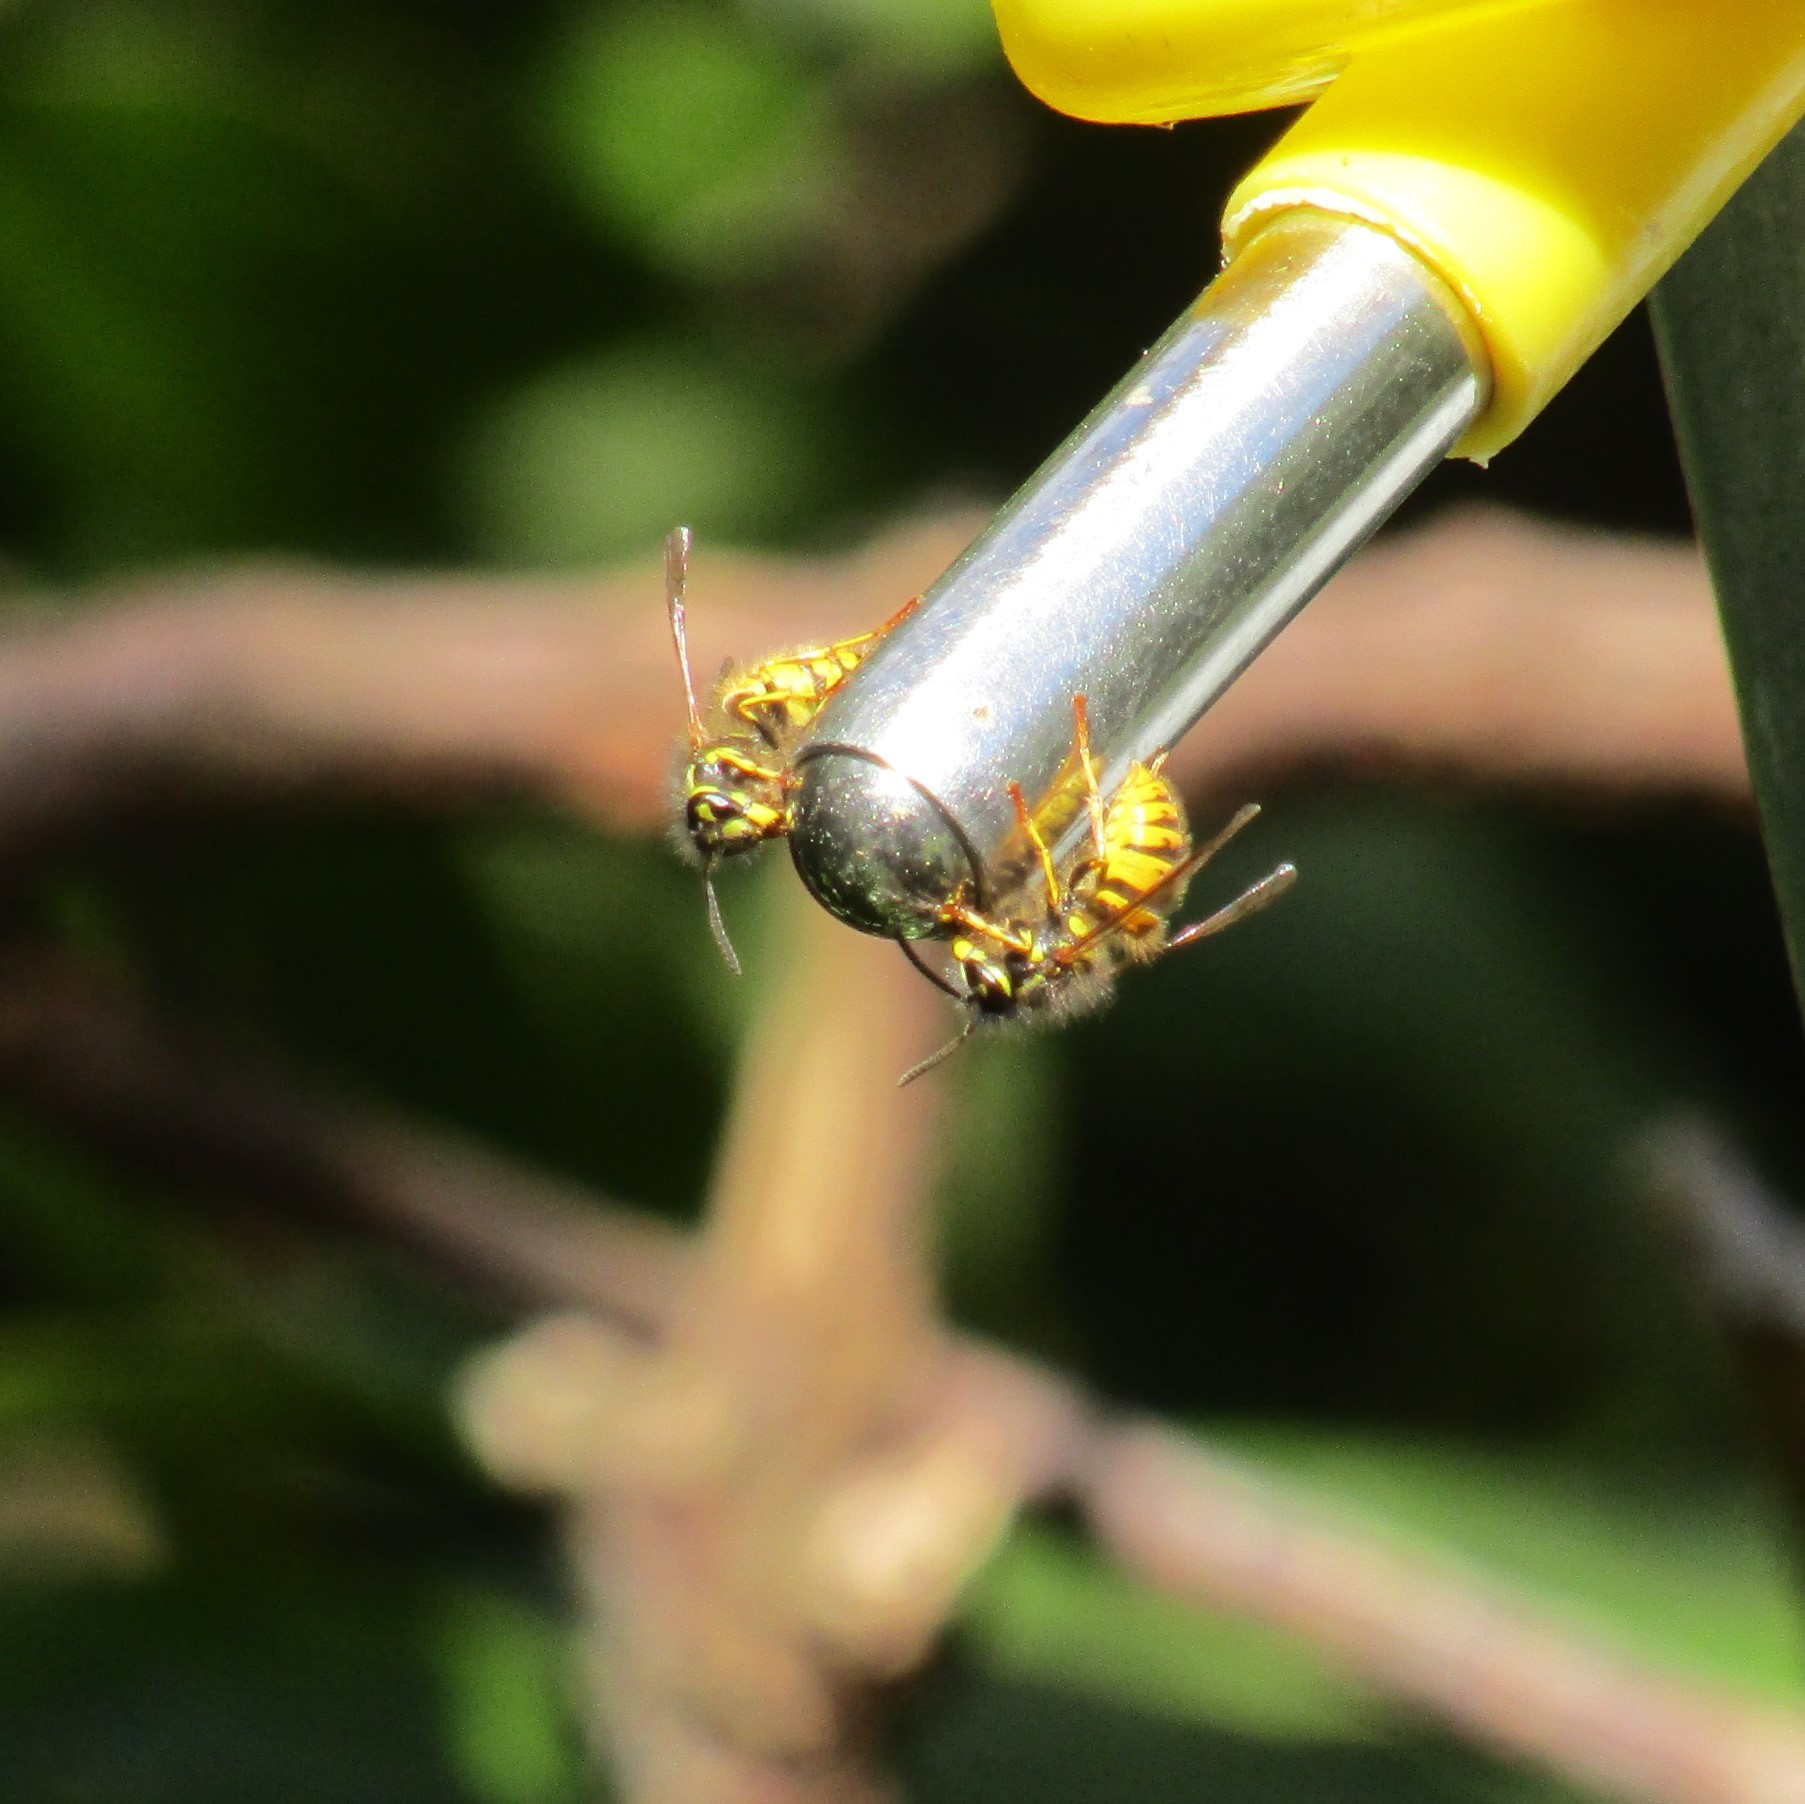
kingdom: Animalia
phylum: Arthropoda
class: Insecta
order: Hymenoptera
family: Vespidae
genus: Vespula
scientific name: Vespula vulgaris
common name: Common wasp
